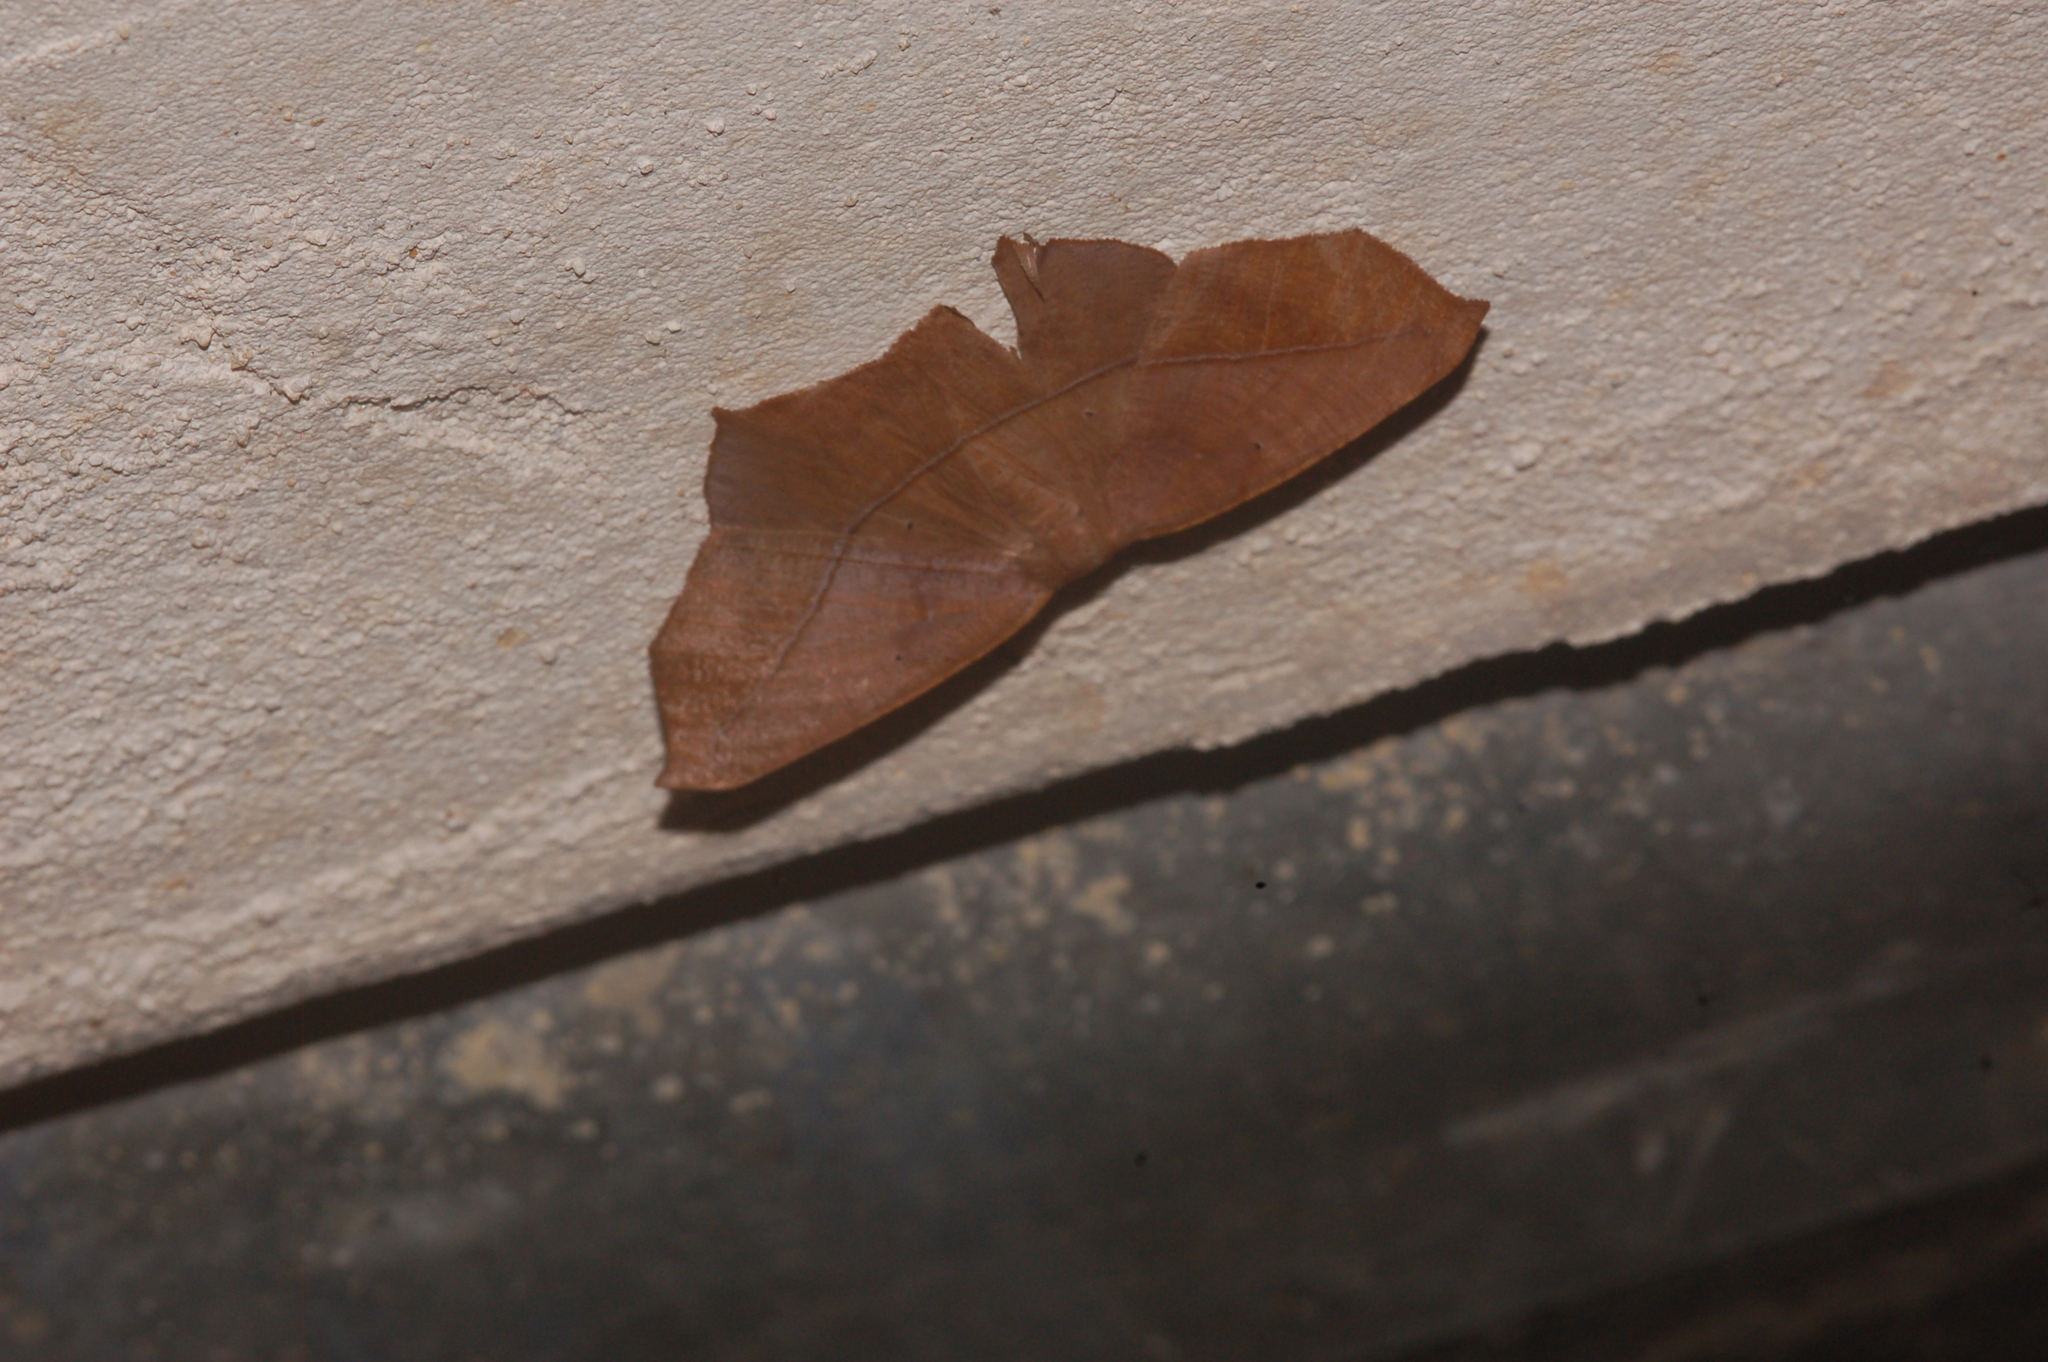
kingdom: Animalia
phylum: Arthropoda
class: Insecta
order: Lepidoptera
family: Geometridae
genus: Prochoerodes
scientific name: Prochoerodes lineola
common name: Large maple spanworm
